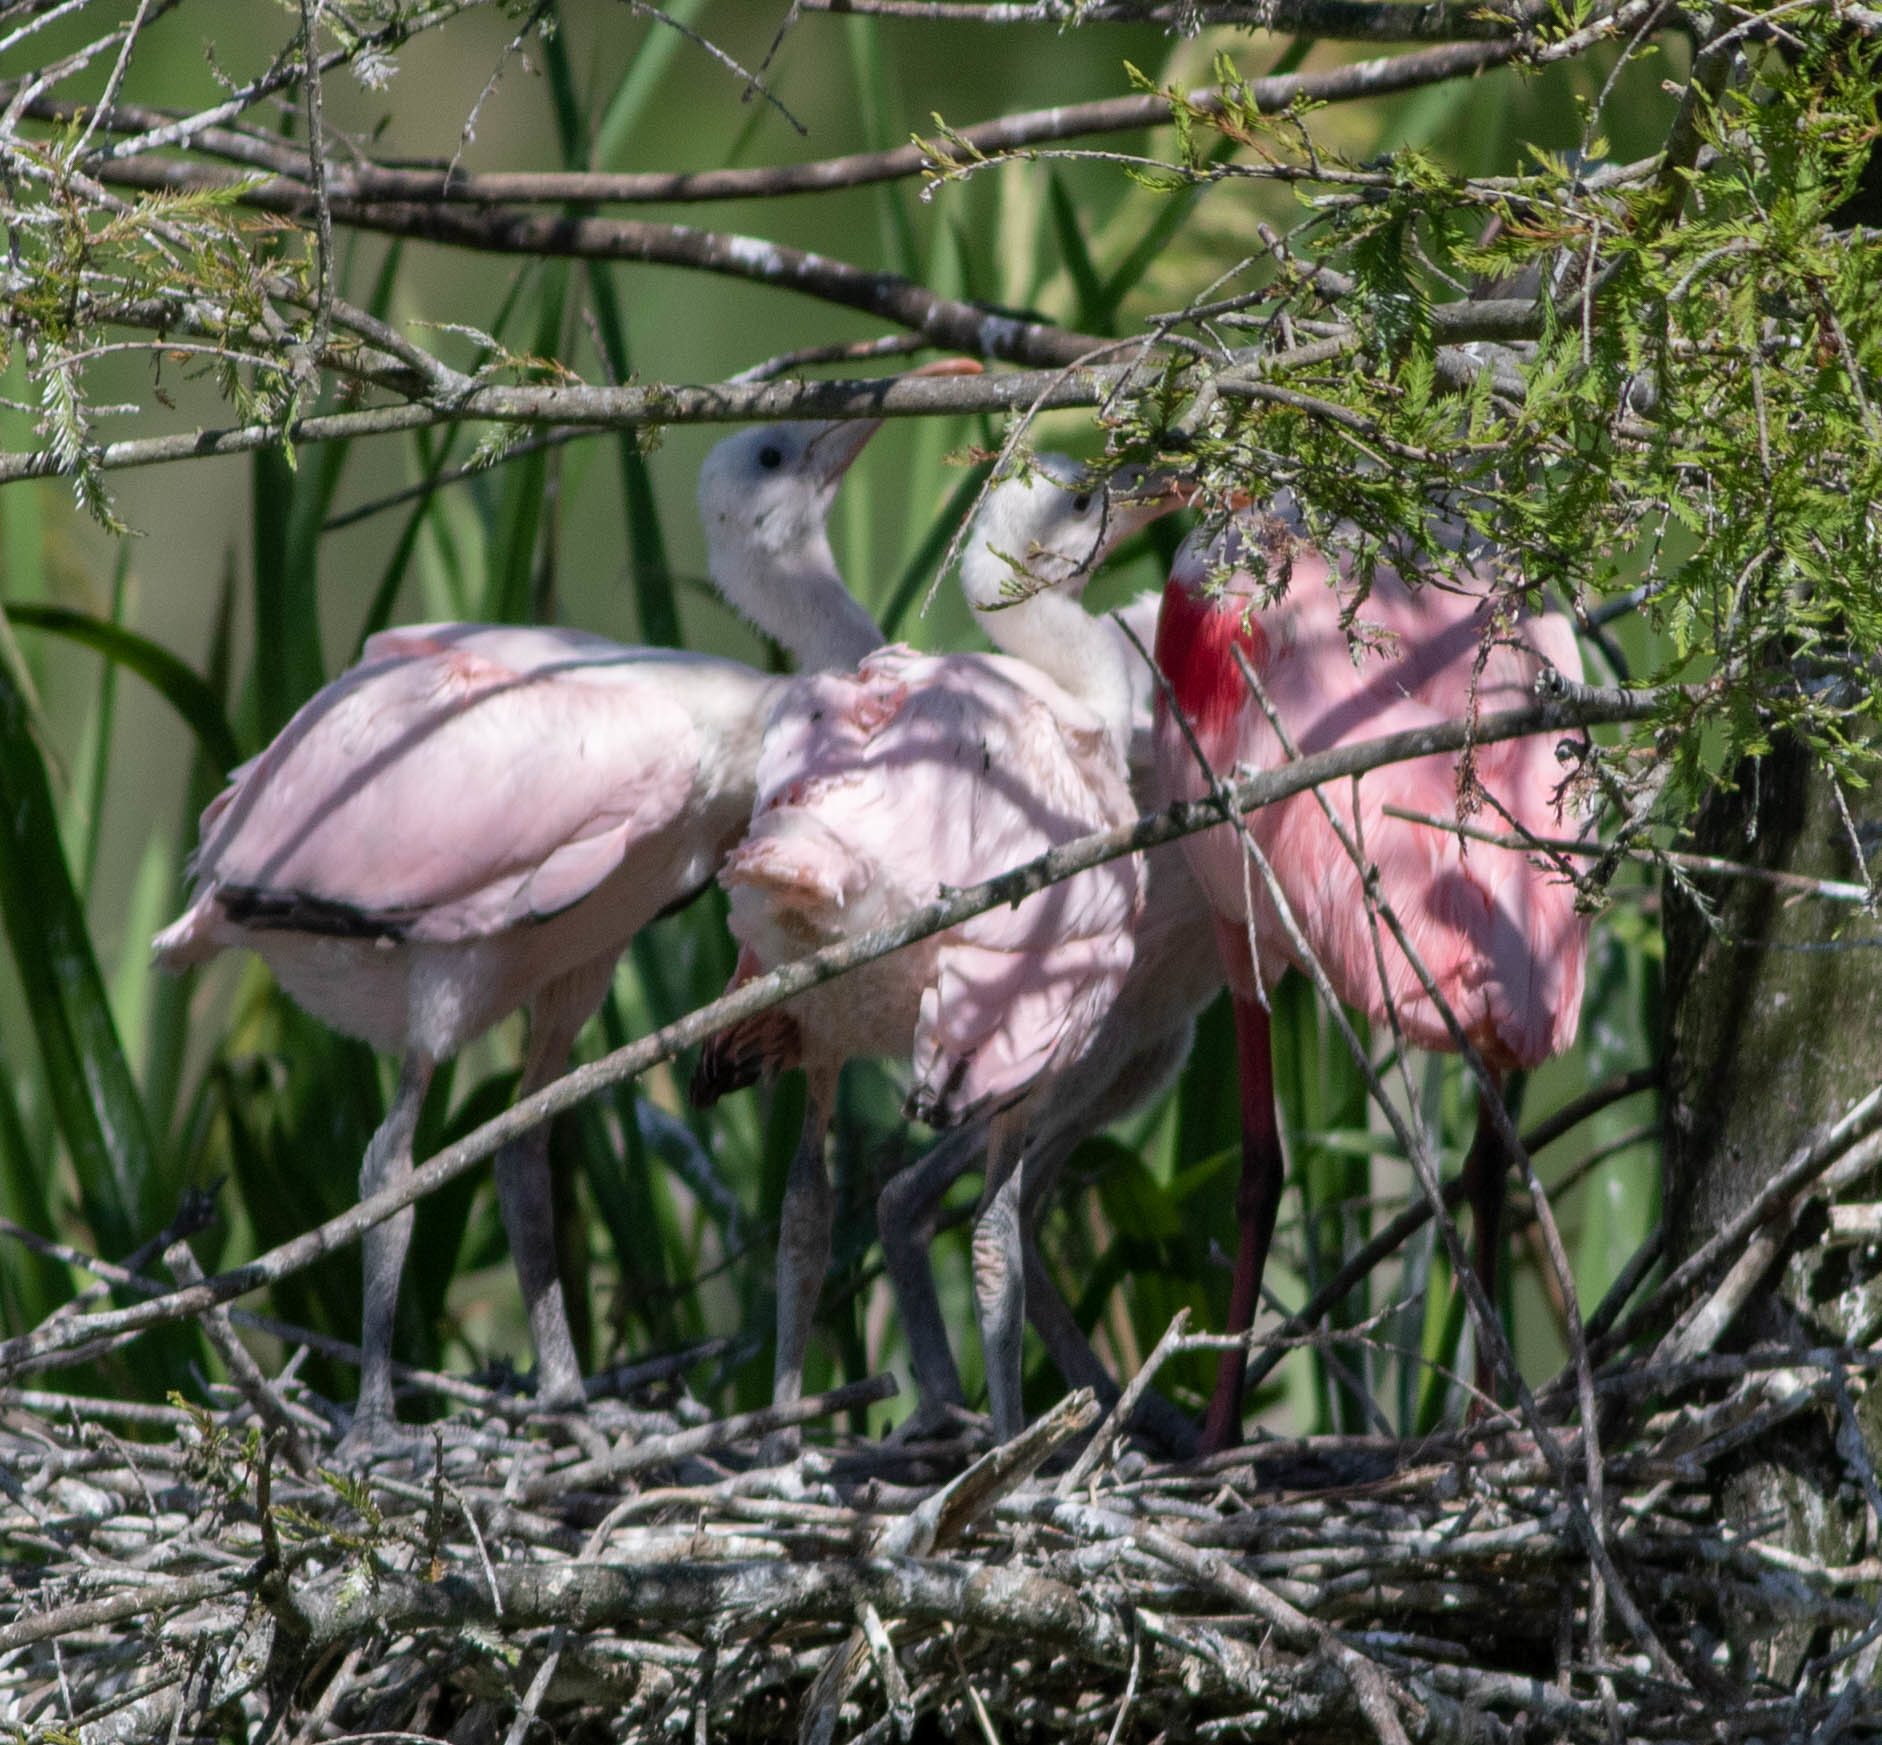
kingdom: Animalia
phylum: Chordata
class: Aves
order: Pelecaniformes
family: Threskiornithidae
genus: Platalea
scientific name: Platalea ajaja
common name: Roseate spoonbill
